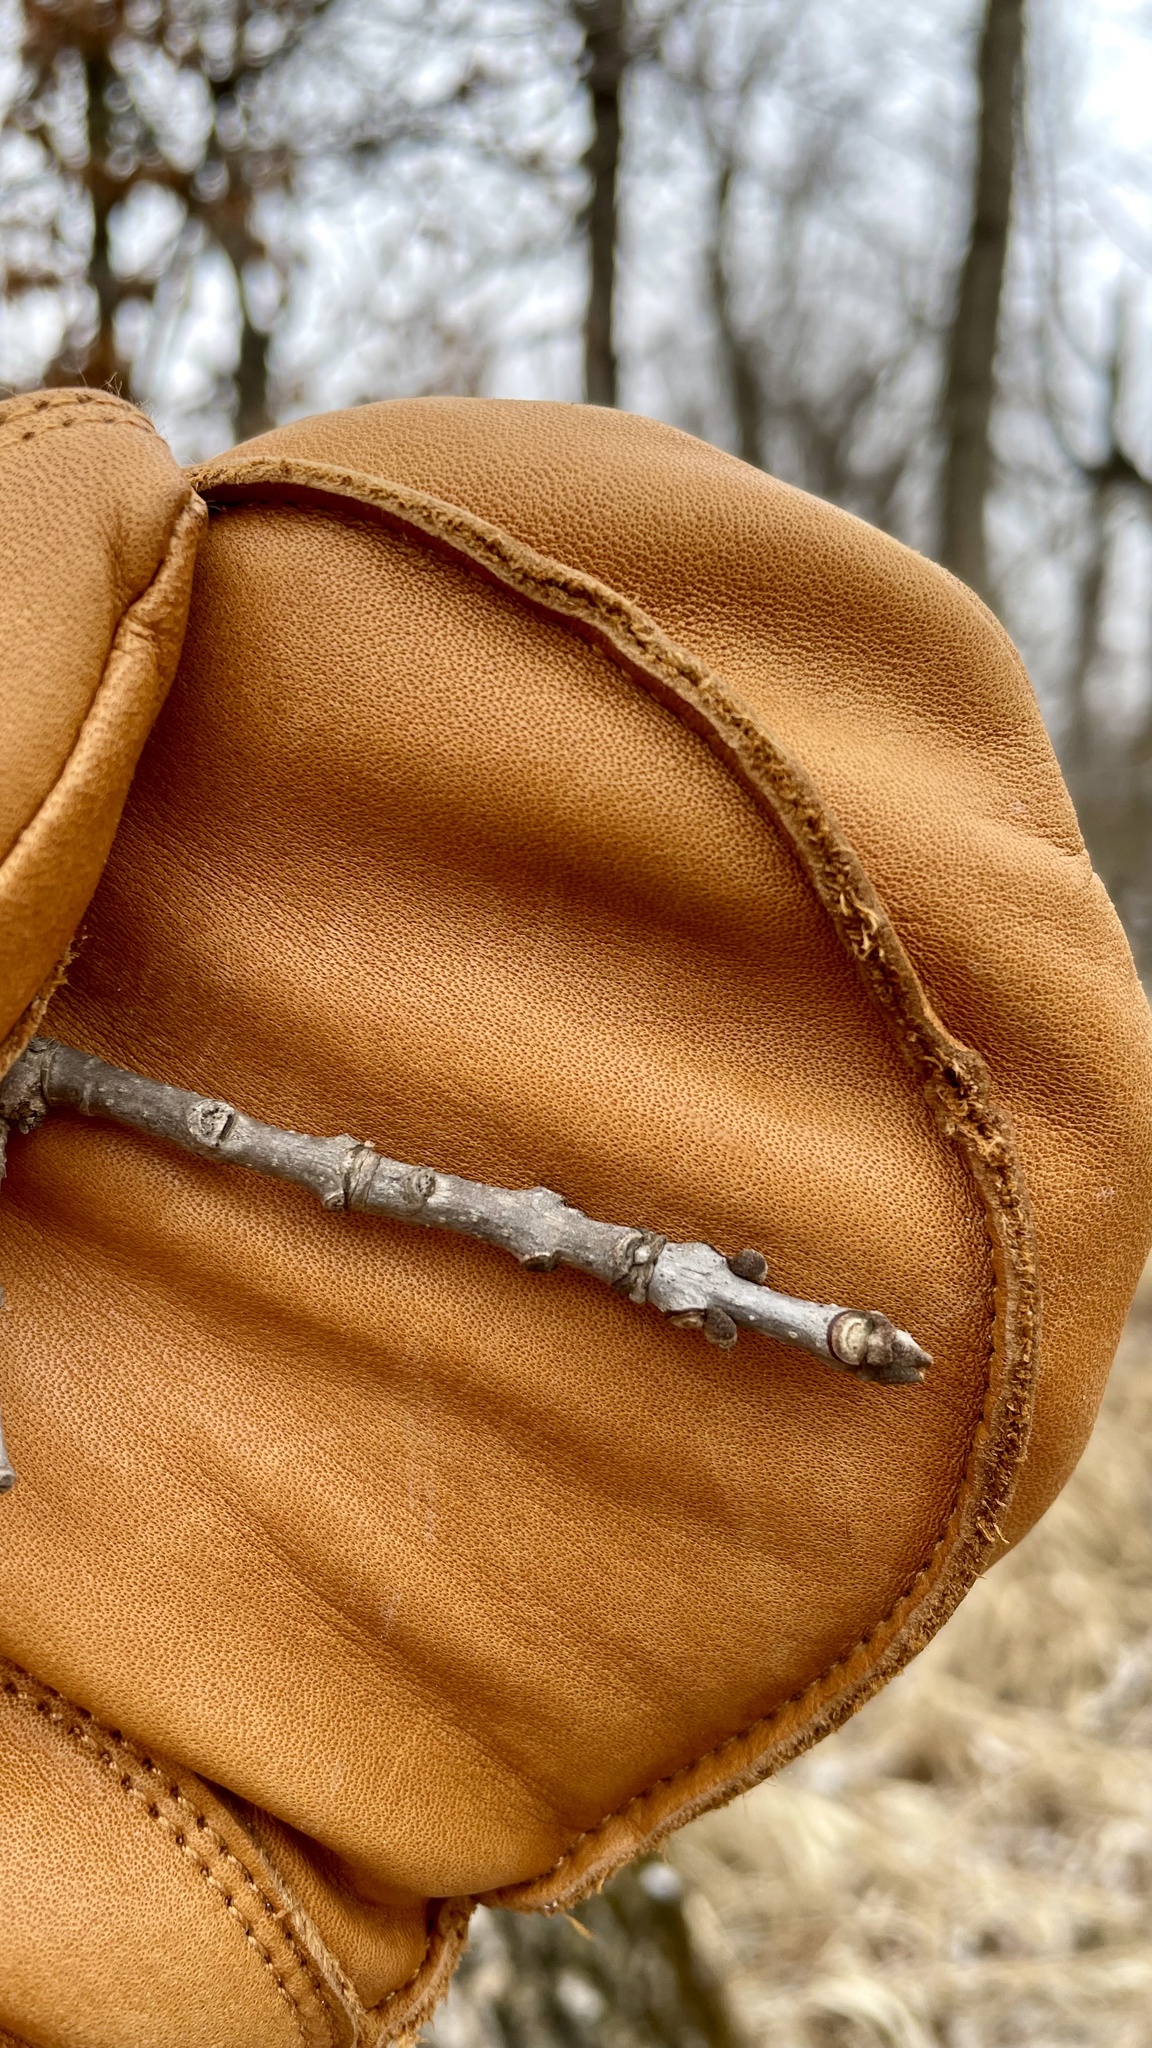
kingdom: Plantae
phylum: Tracheophyta
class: Magnoliopsida
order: Lamiales
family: Oleaceae
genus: Fraxinus
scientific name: Fraxinus nigra
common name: Black ash
